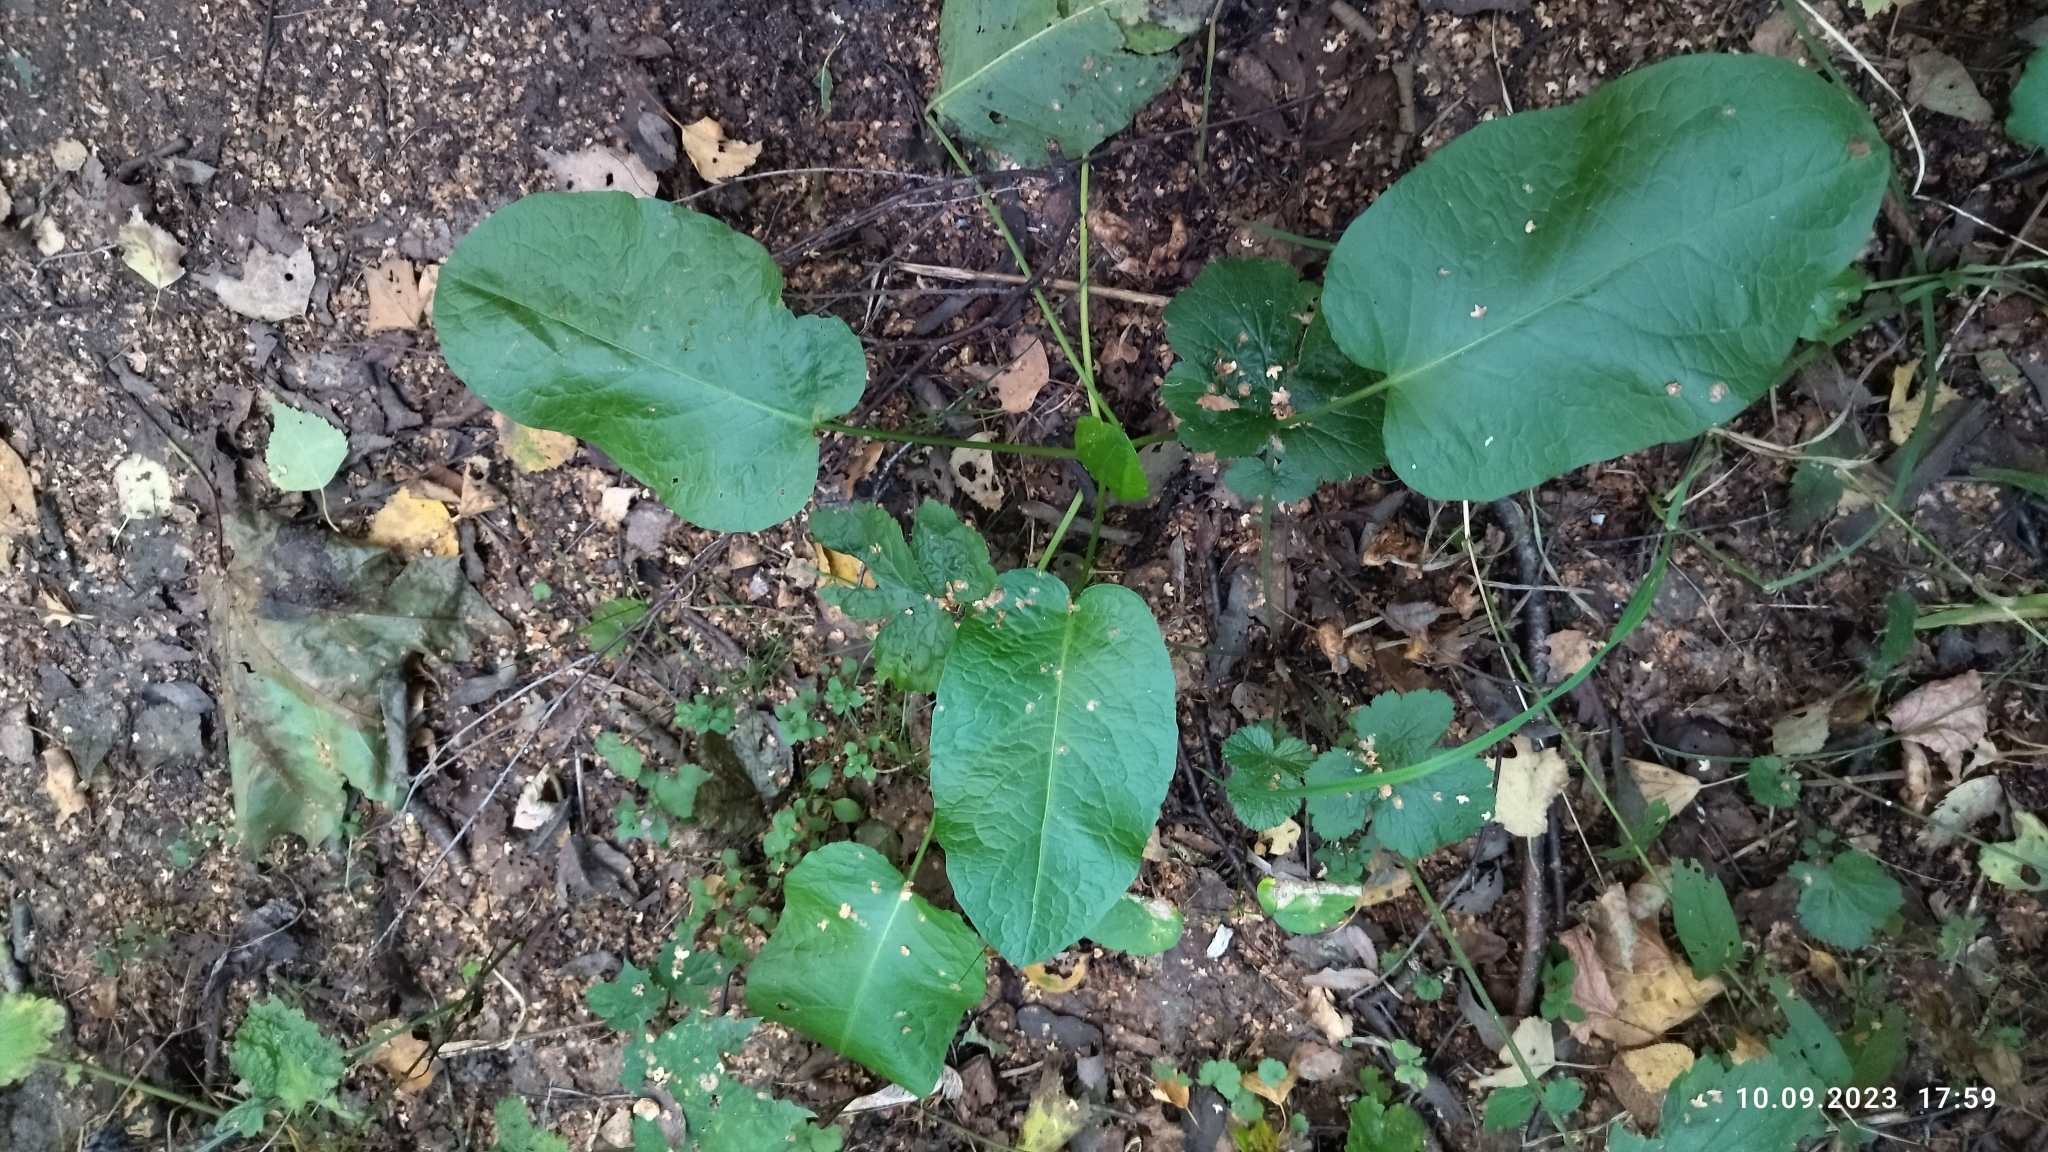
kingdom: Plantae
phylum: Tracheophyta
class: Magnoliopsida
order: Caryophyllales
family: Polygonaceae
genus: Rumex
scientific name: Rumex obtusifolius
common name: Bitter dock
